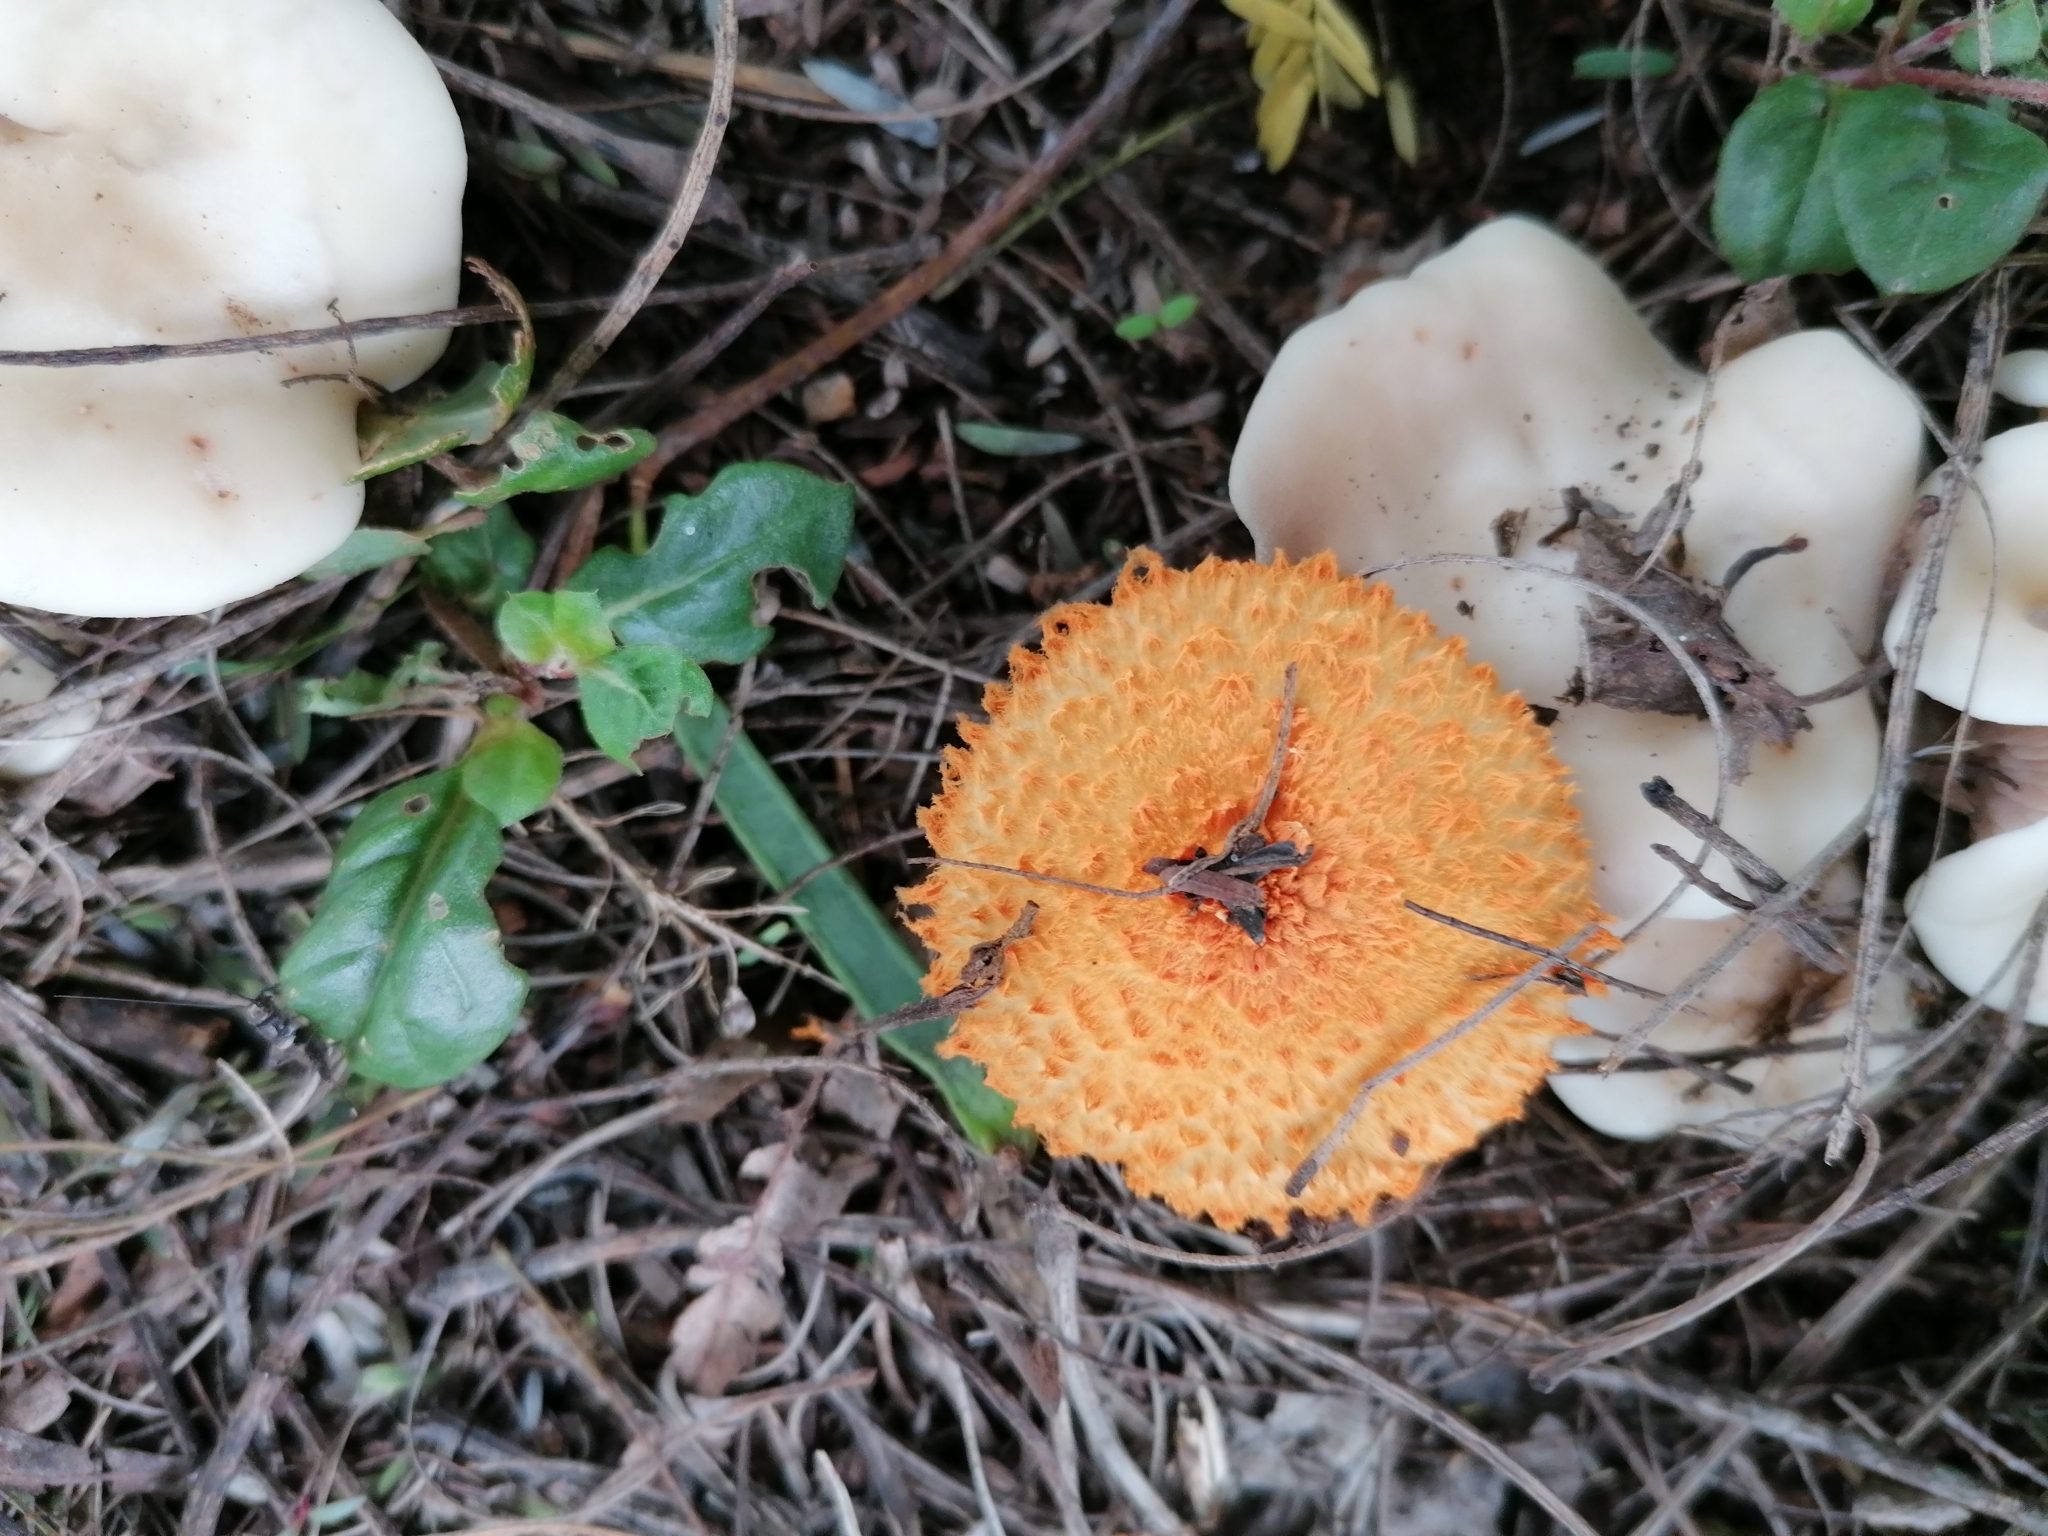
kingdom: Fungi
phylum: Basidiomycota
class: Agaricomycetes
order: Agaricales
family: Agaricaceae
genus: Agaricus
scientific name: Agaricus trisulphuratus
